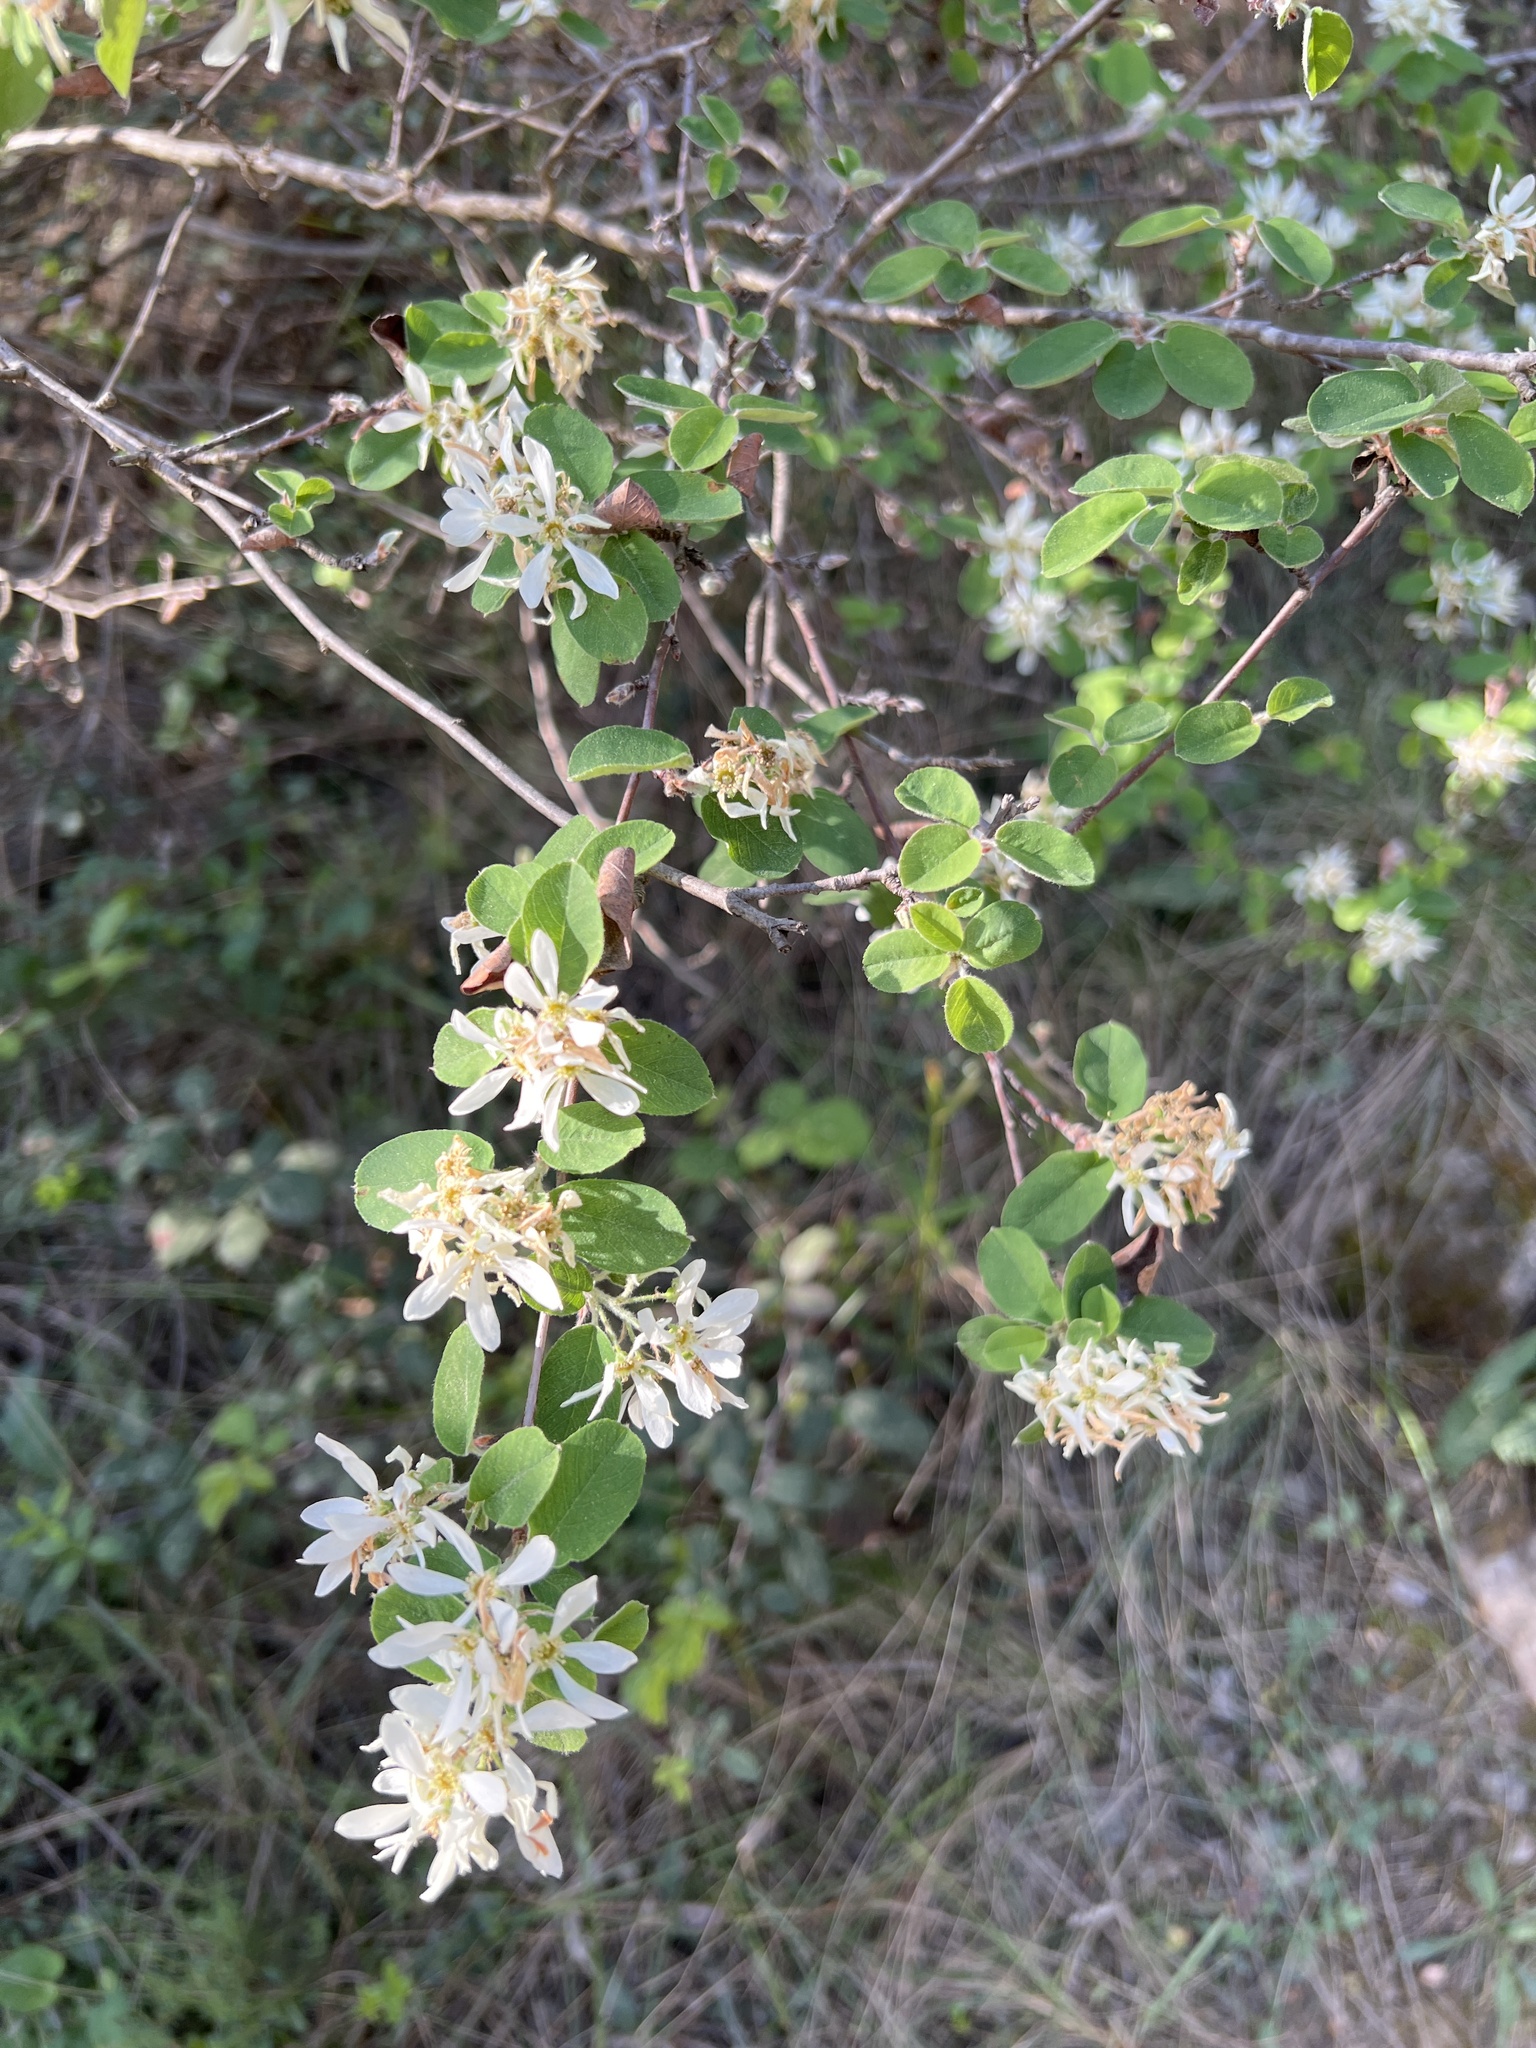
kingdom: Plantae
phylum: Tracheophyta
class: Magnoliopsida
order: Rosales
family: Rosaceae
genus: Amelanchier
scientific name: Amelanchier ovalis
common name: Serviceberry
